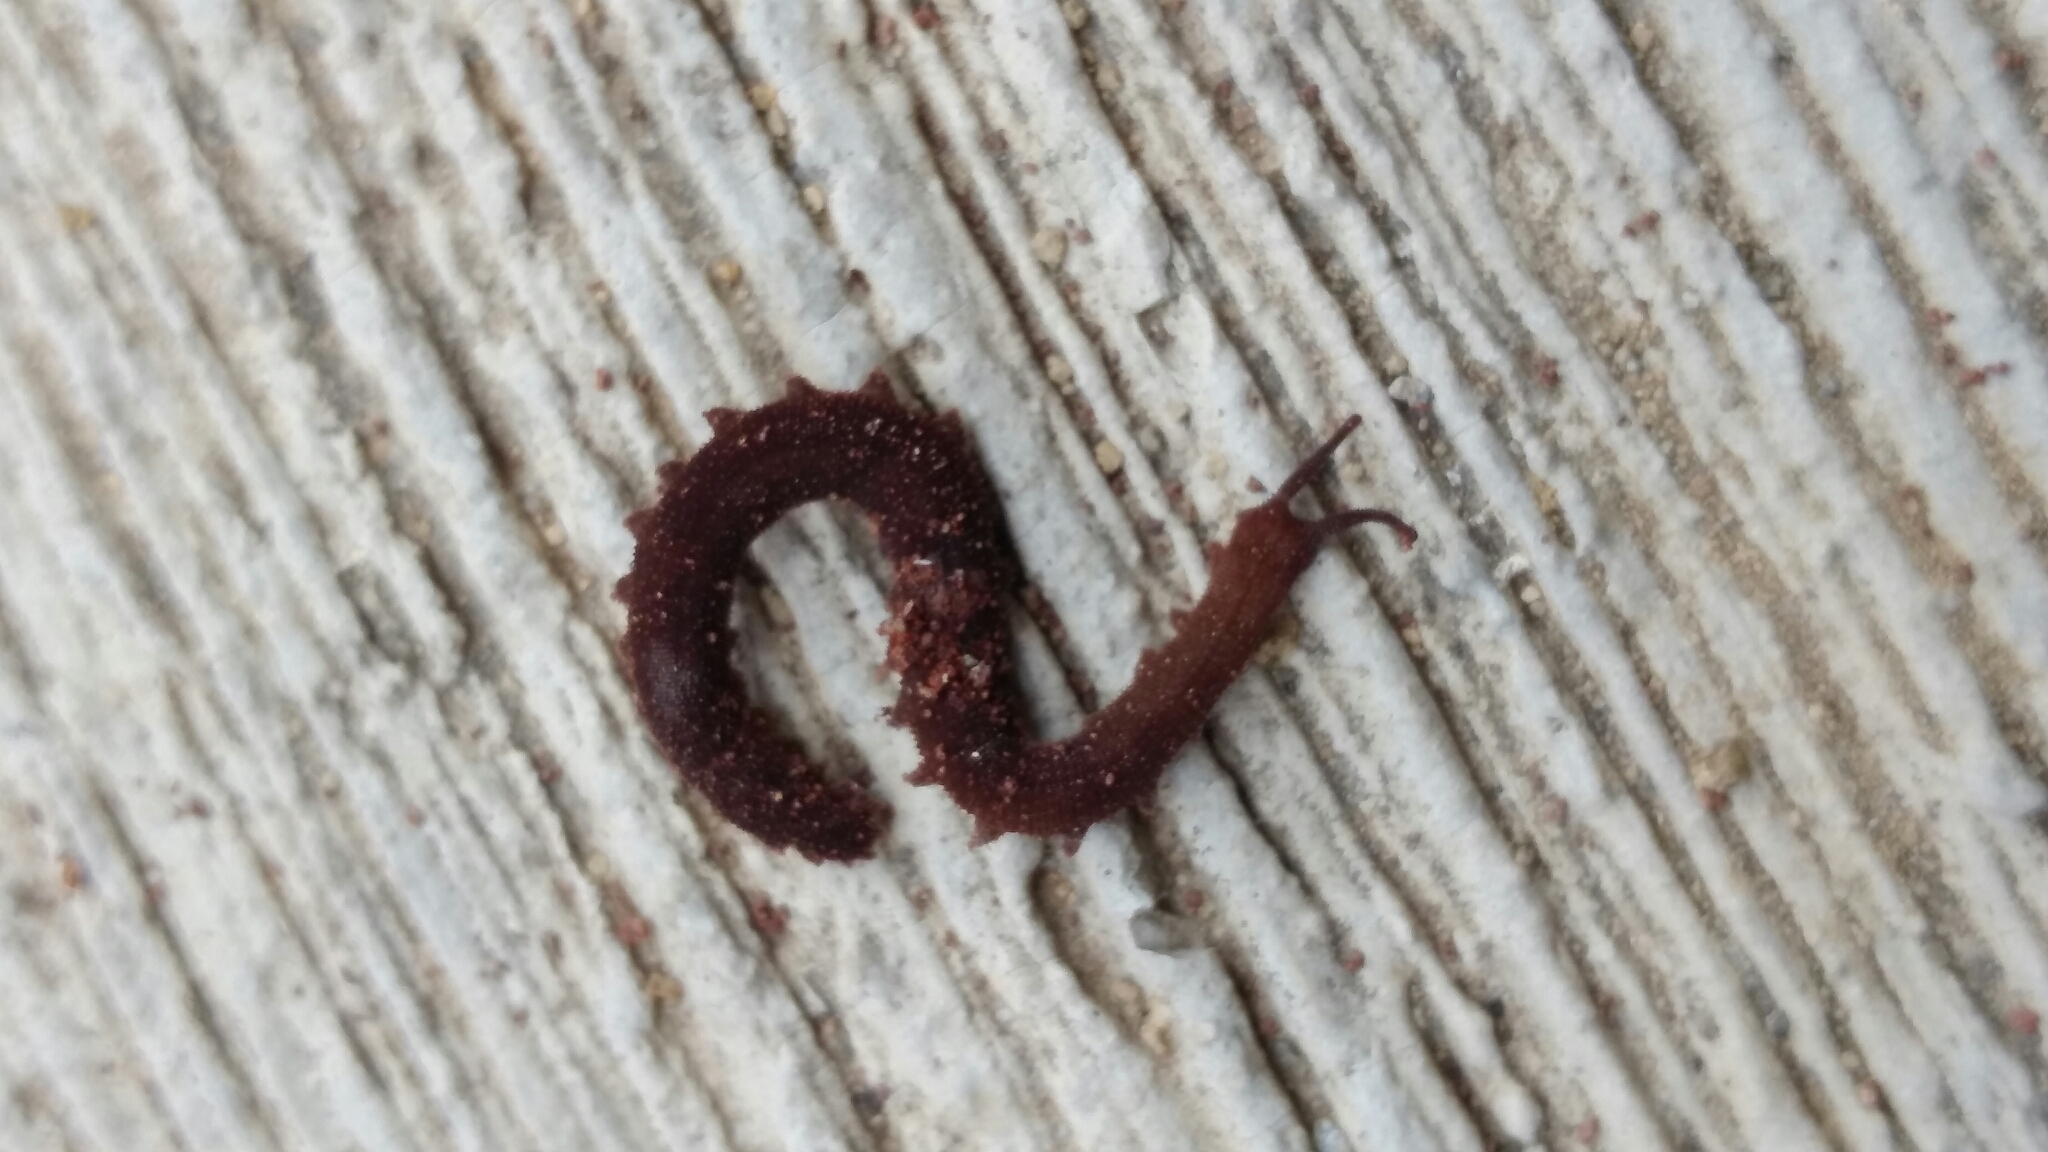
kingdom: Animalia
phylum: Onychophora
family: Peripatidae
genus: Oroperipatus
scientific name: Oroperipatus eisenii
